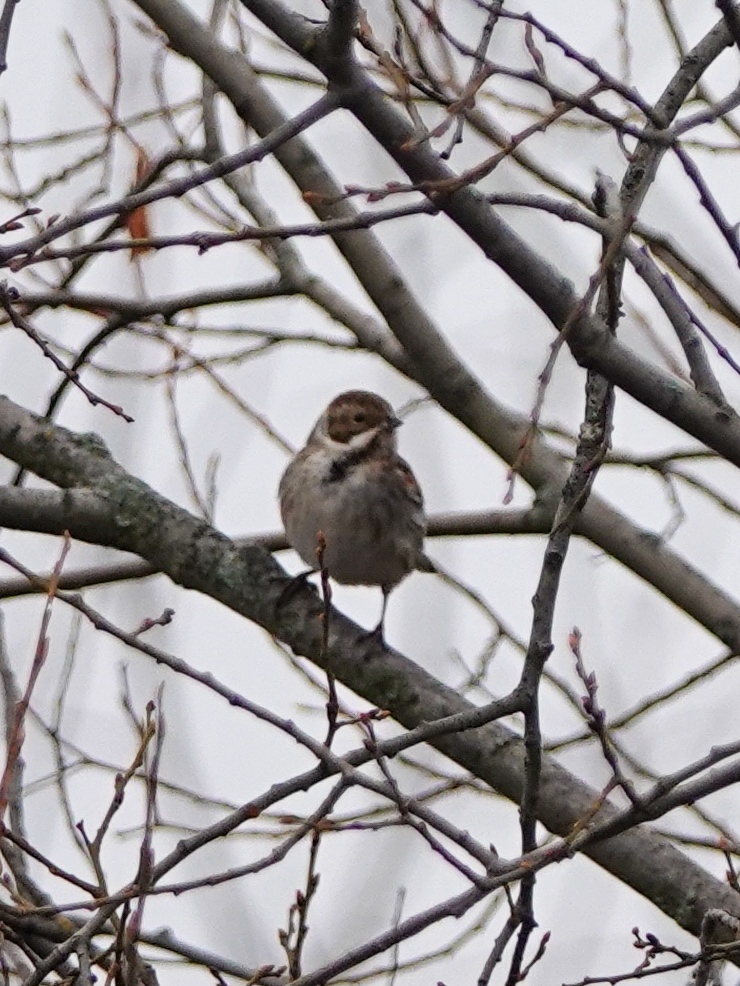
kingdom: Animalia
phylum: Chordata
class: Aves
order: Passeriformes
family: Emberizidae
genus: Emberiza
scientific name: Emberiza schoeniclus
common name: Reed bunting
